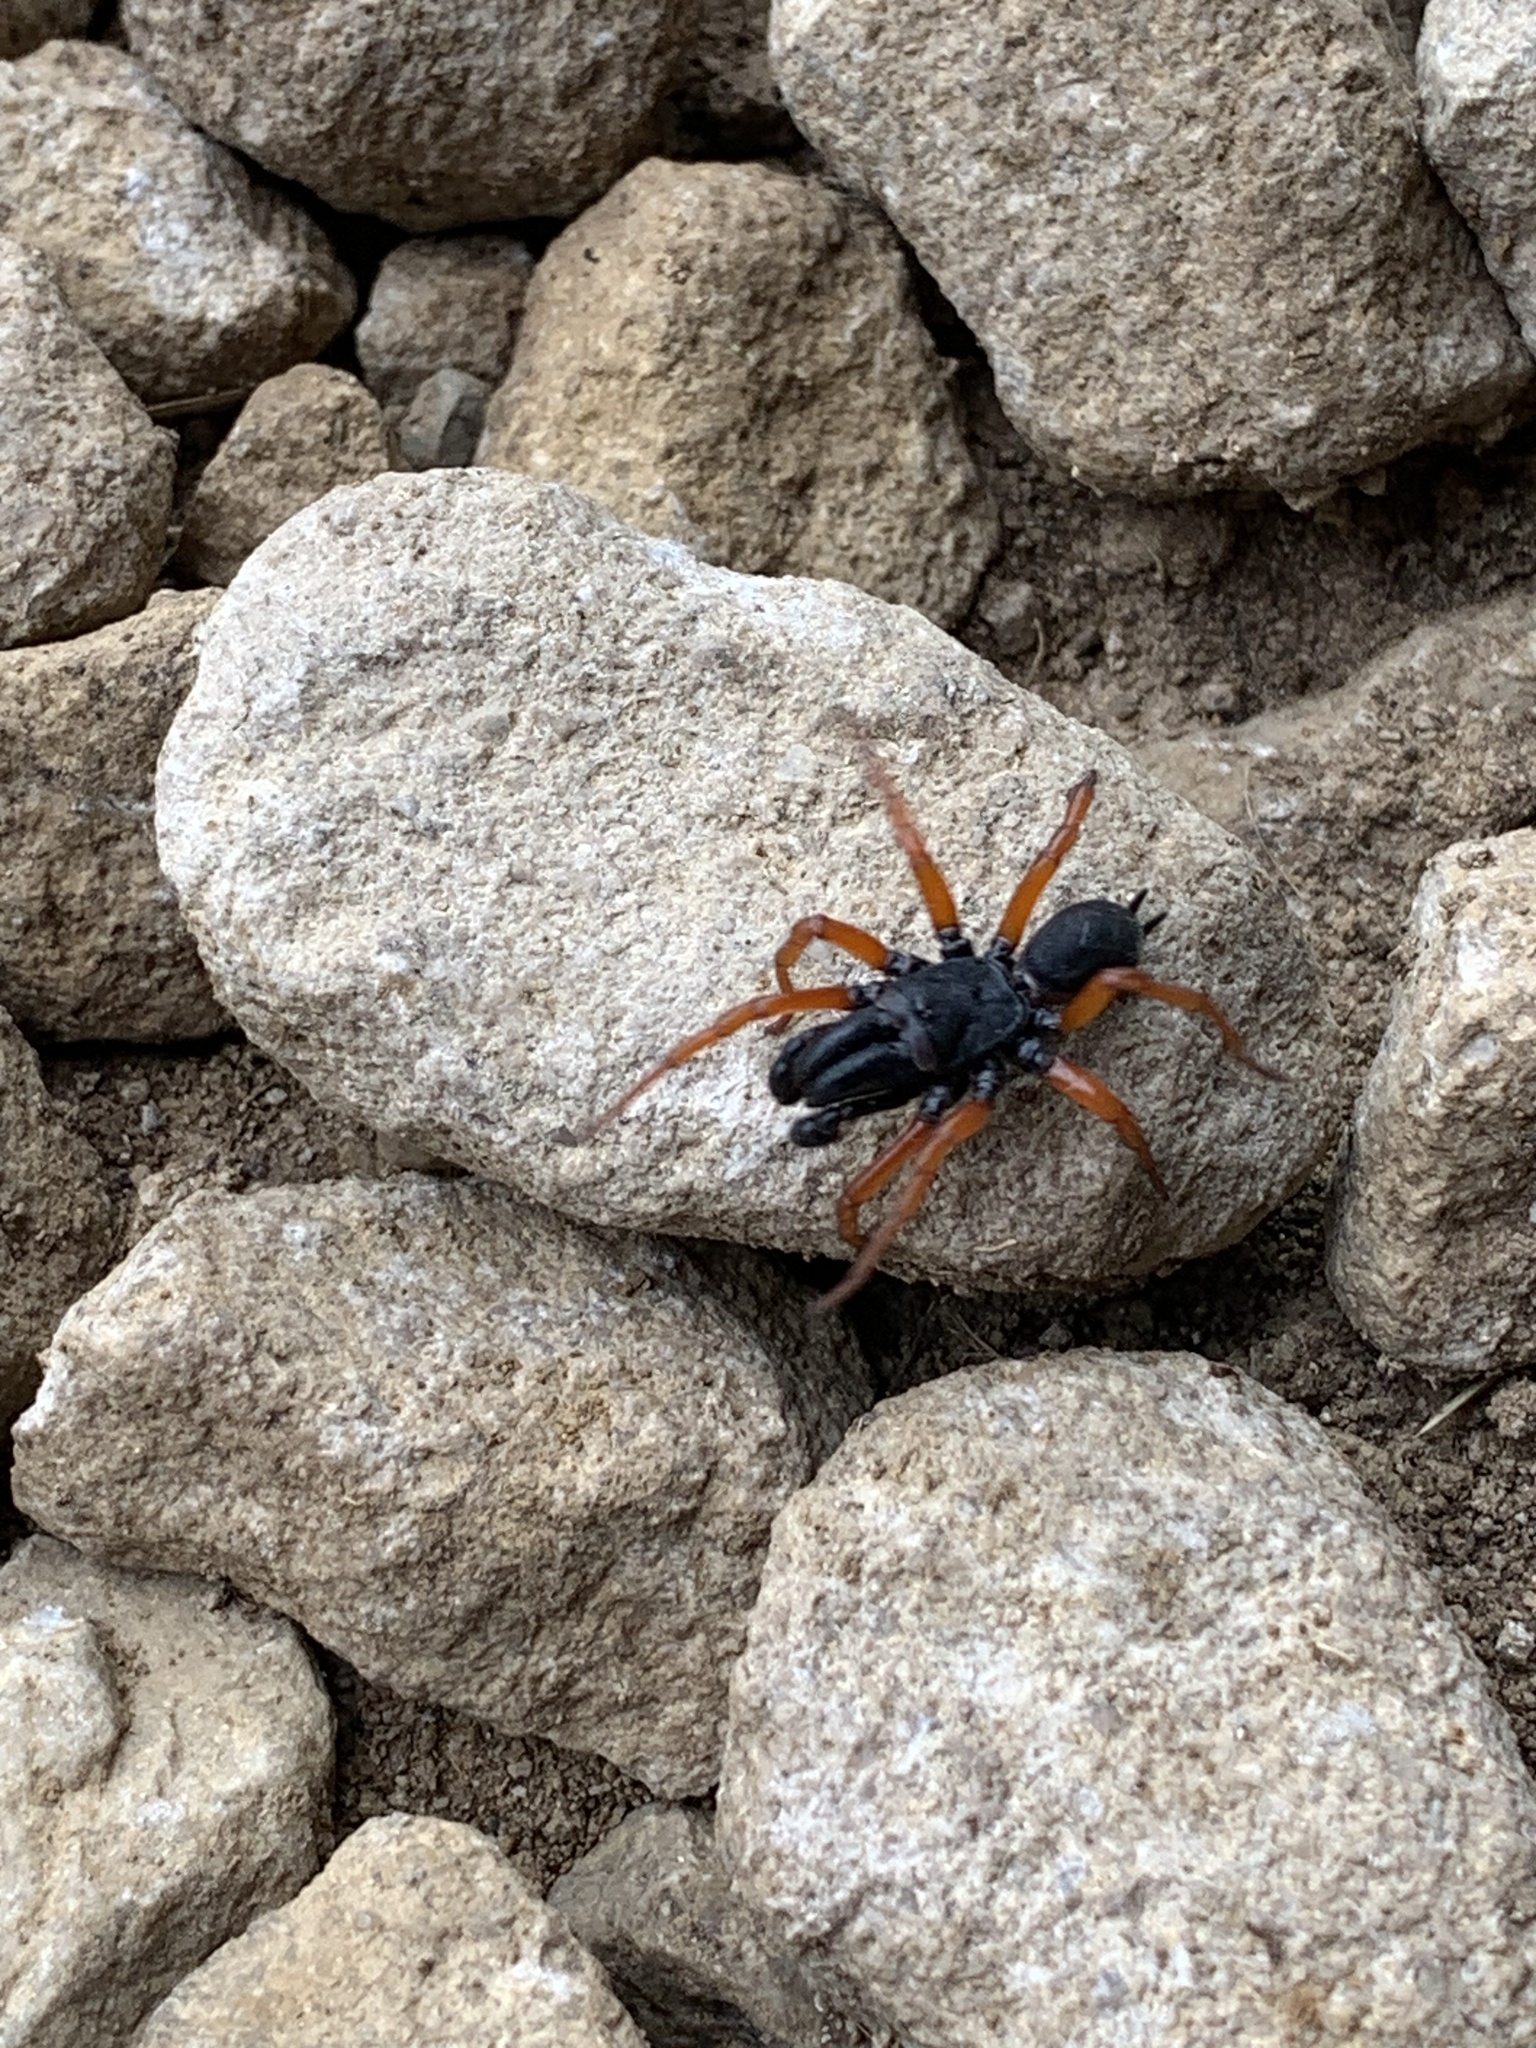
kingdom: Animalia
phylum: Arthropoda
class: Arachnida
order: Araneae
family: Atypidae
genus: Sphodros
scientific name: Sphodros rufipes
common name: Red-legged purseweb spider
